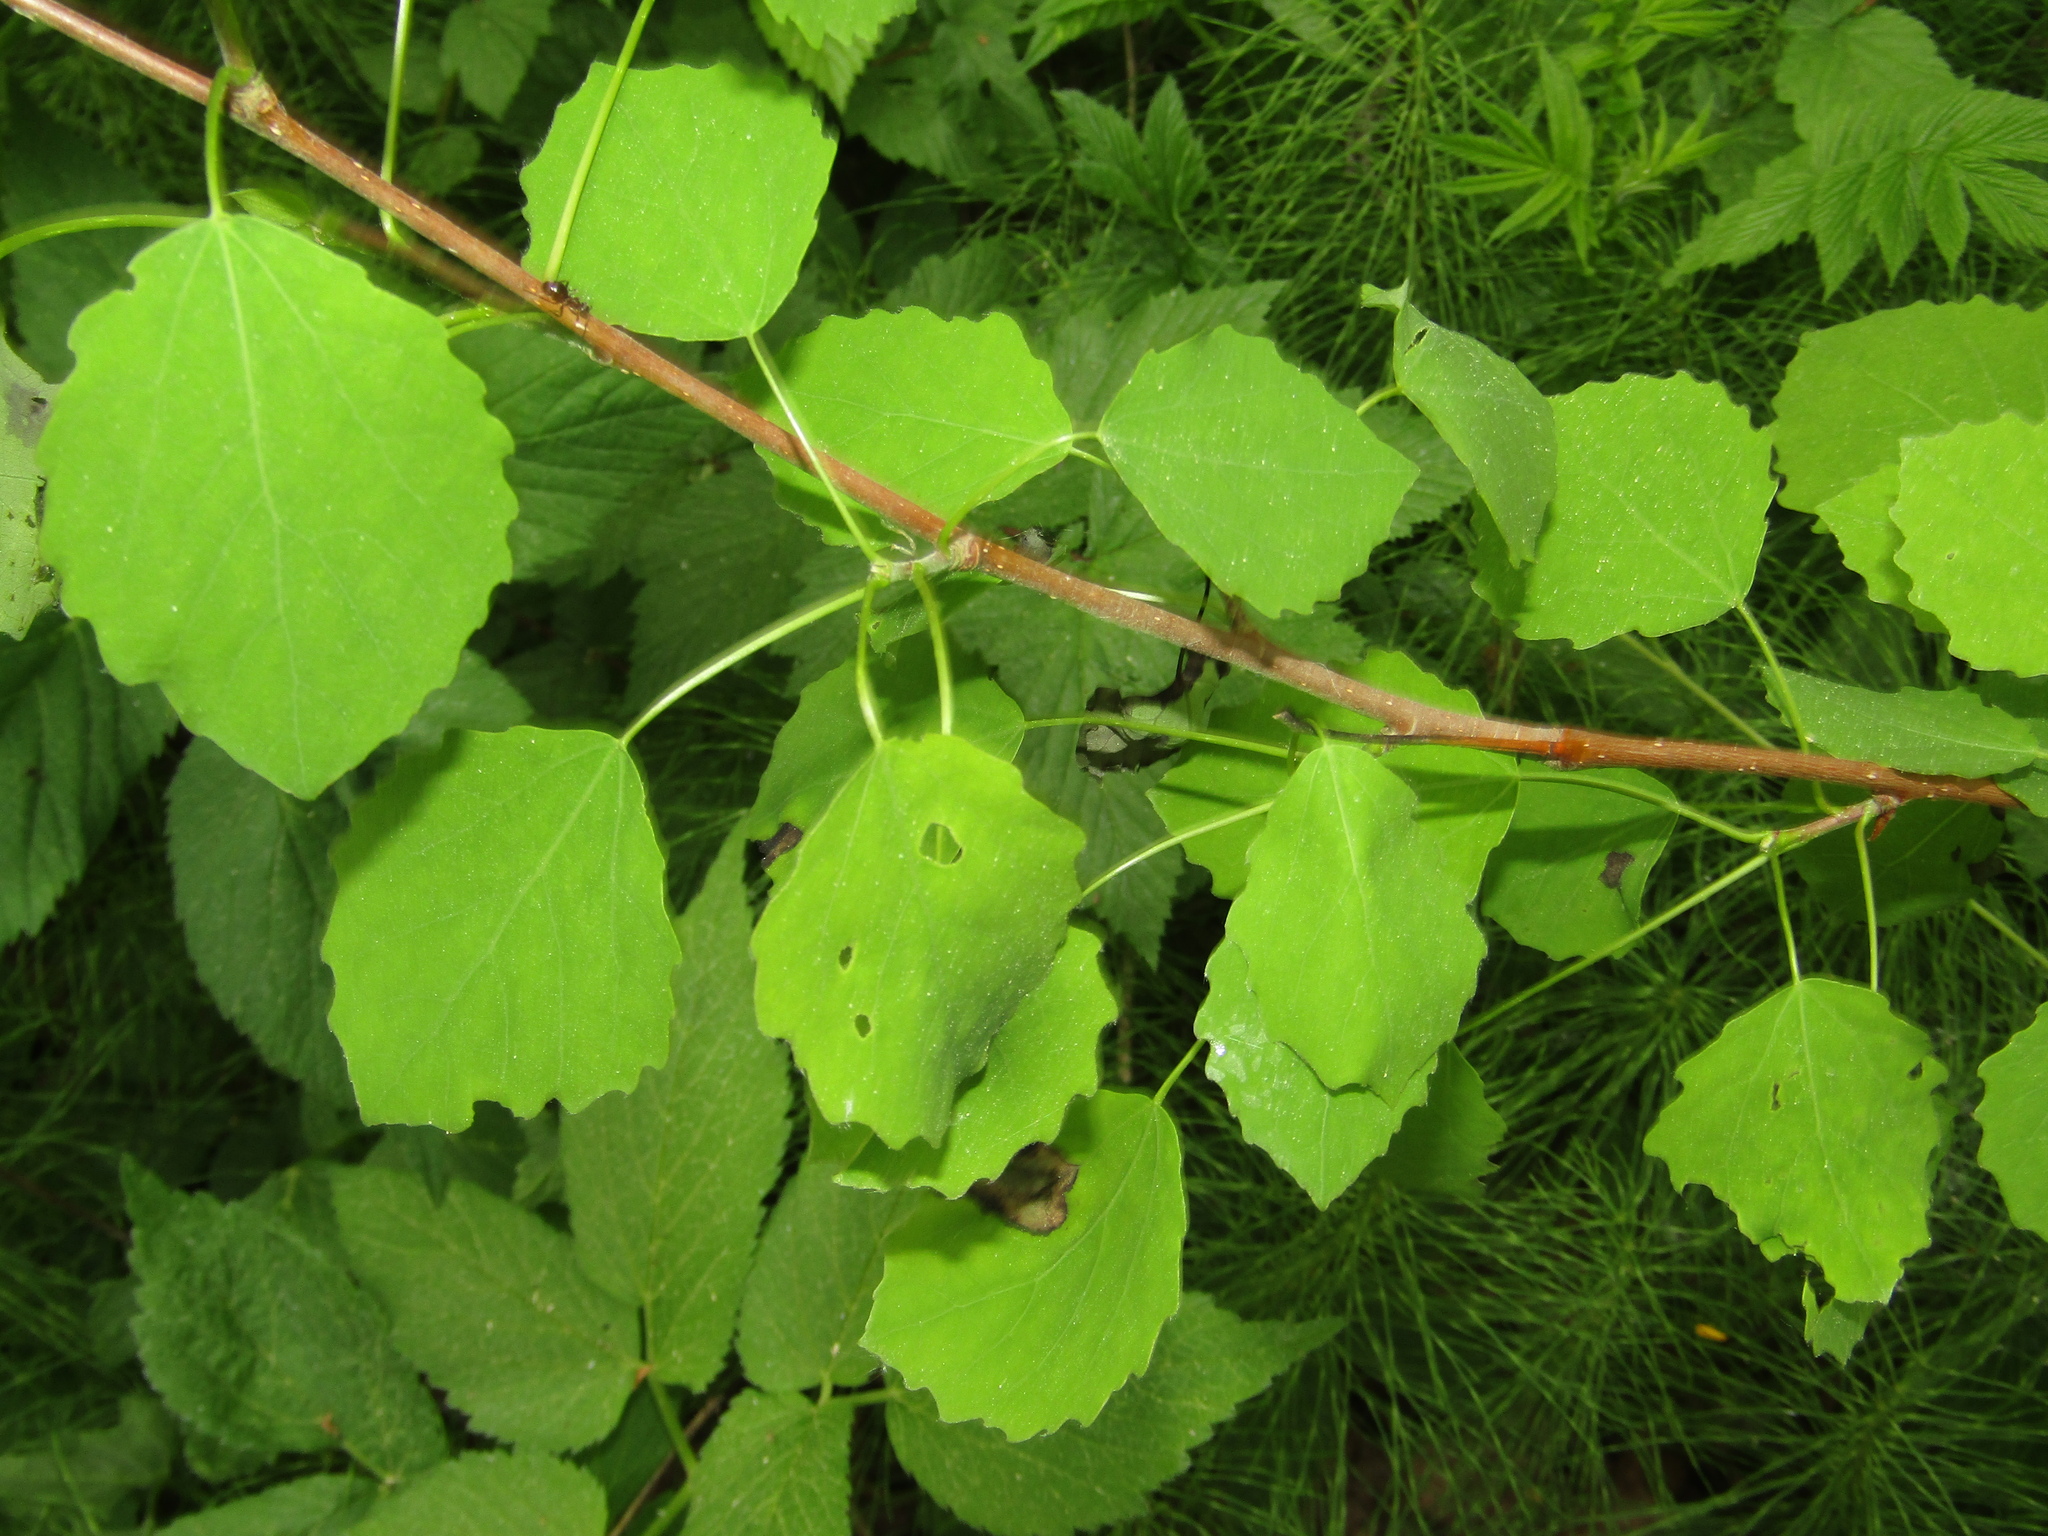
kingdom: Plantae
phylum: Tracheophyta
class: Magnoliopsida
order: Malpighiales
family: Salicaceae
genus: Populus
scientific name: Populus tremula
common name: European aspen
